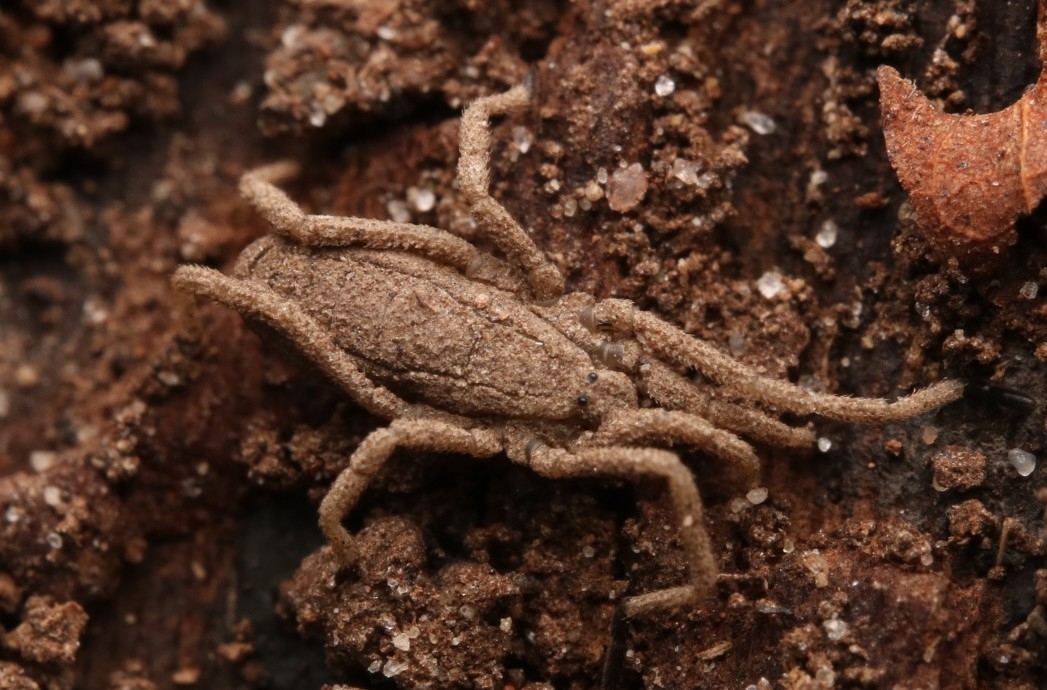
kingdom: Animalia
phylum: Arthropoda
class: Arachnida
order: Opiliones
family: Trogulidae
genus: Trogulus
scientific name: Trogulus tricarinatus
